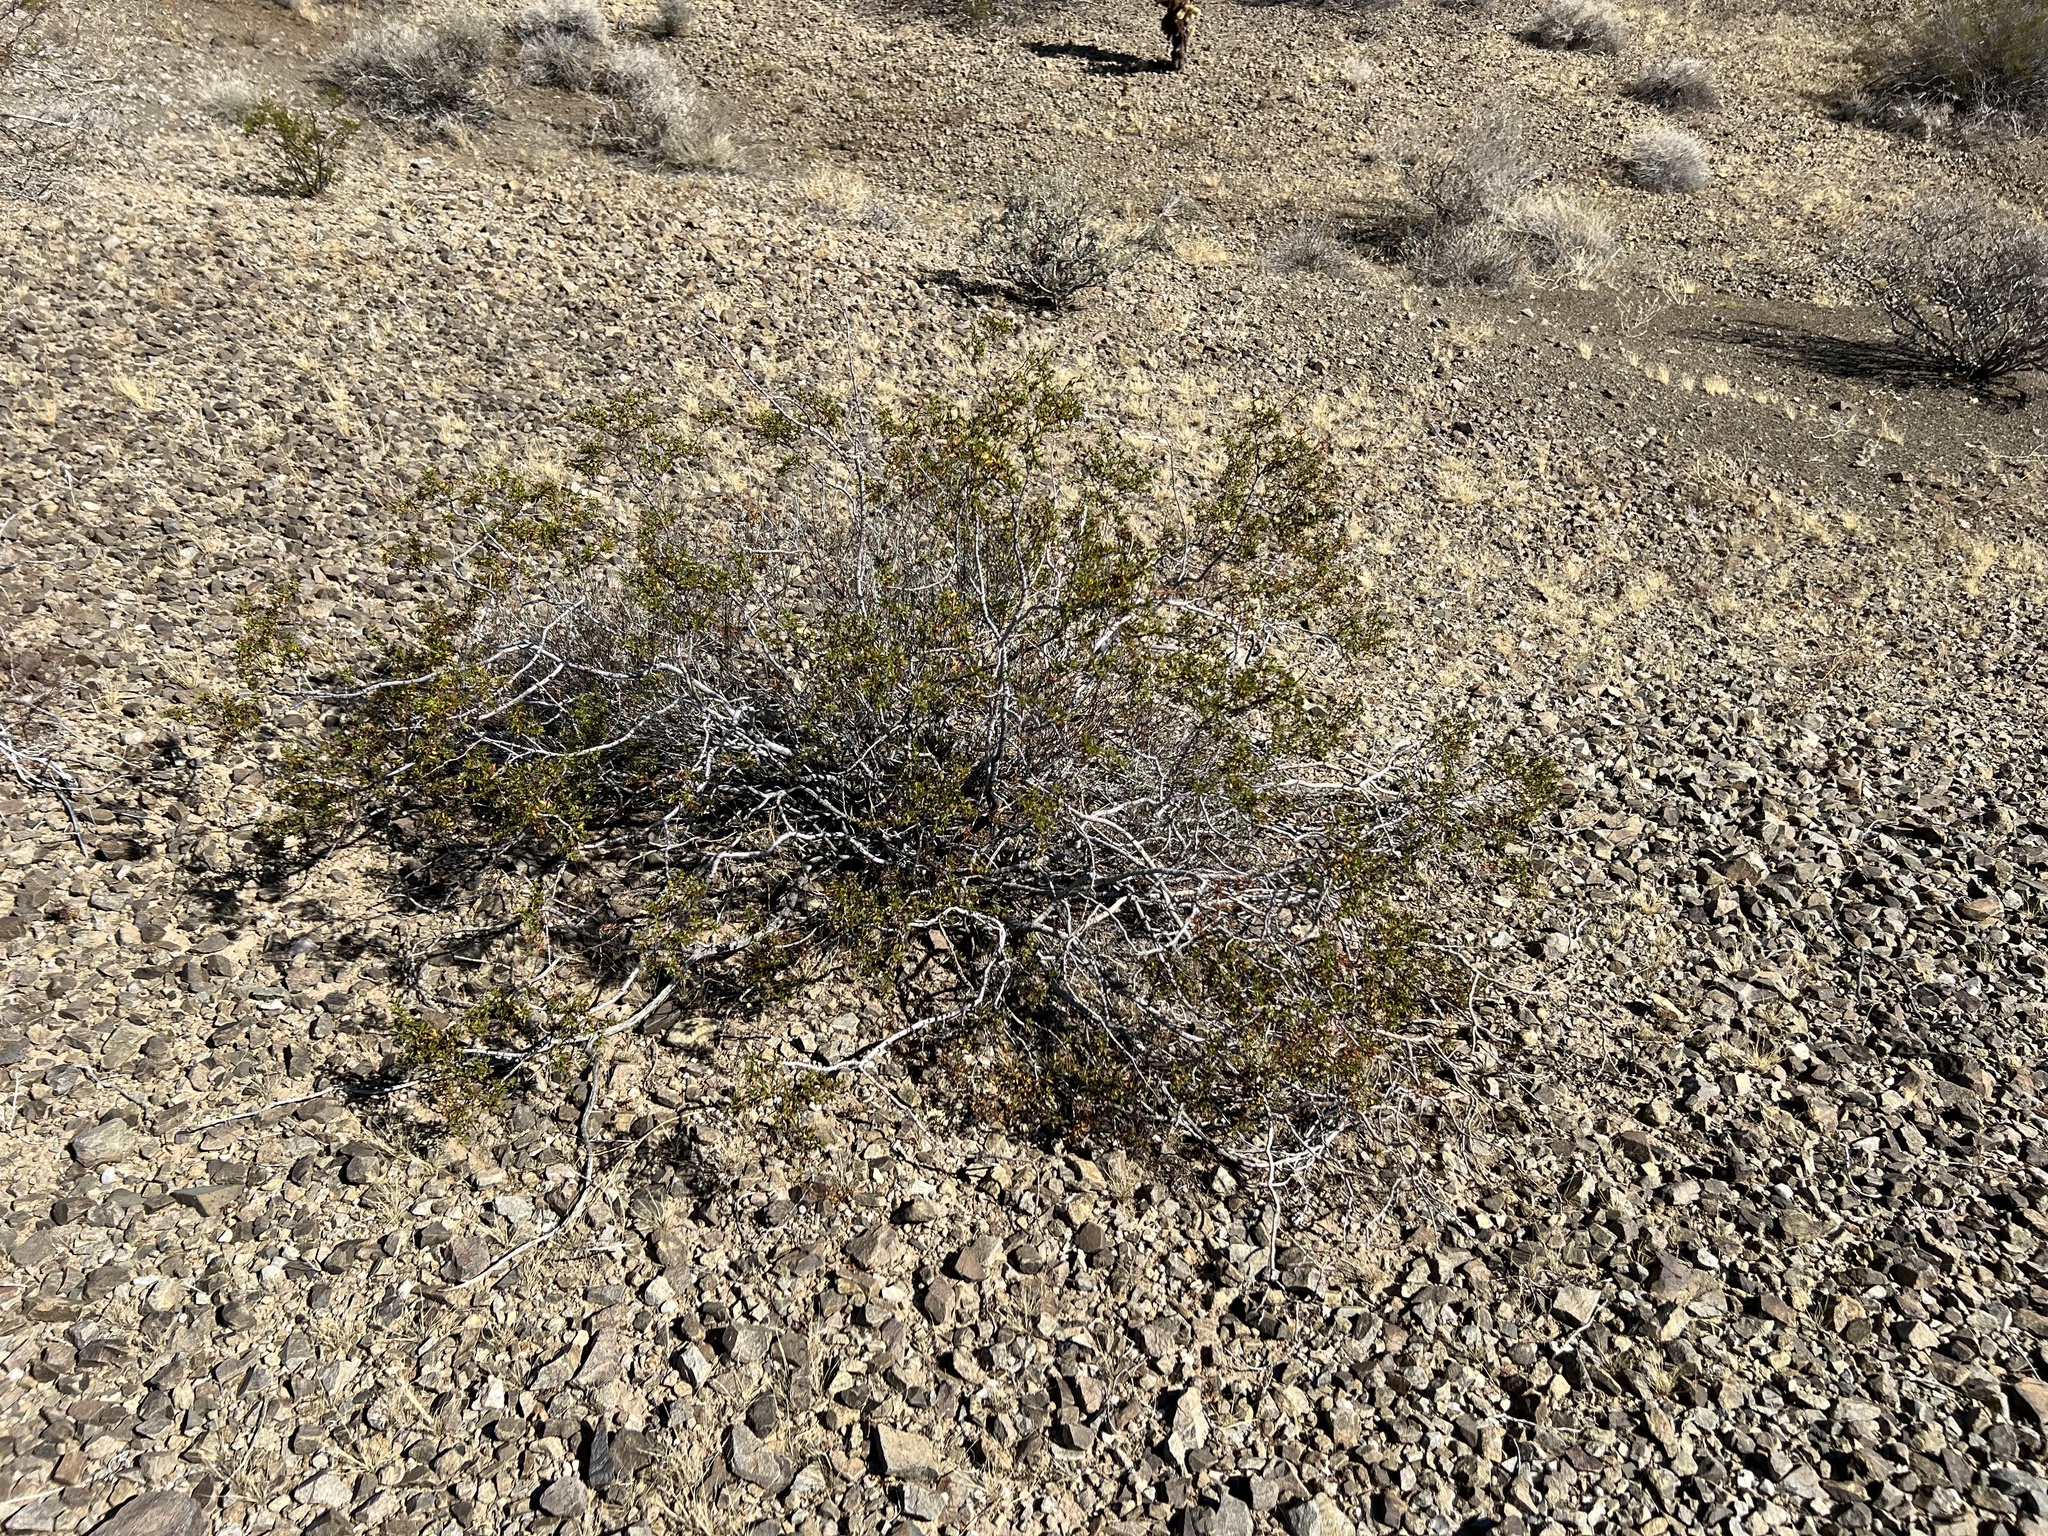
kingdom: Plantae
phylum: Tracheophyta
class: Magnoliopsida
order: Zygophyllales
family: Zygophyllaceae
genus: Larrea
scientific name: Larrea tridentata
